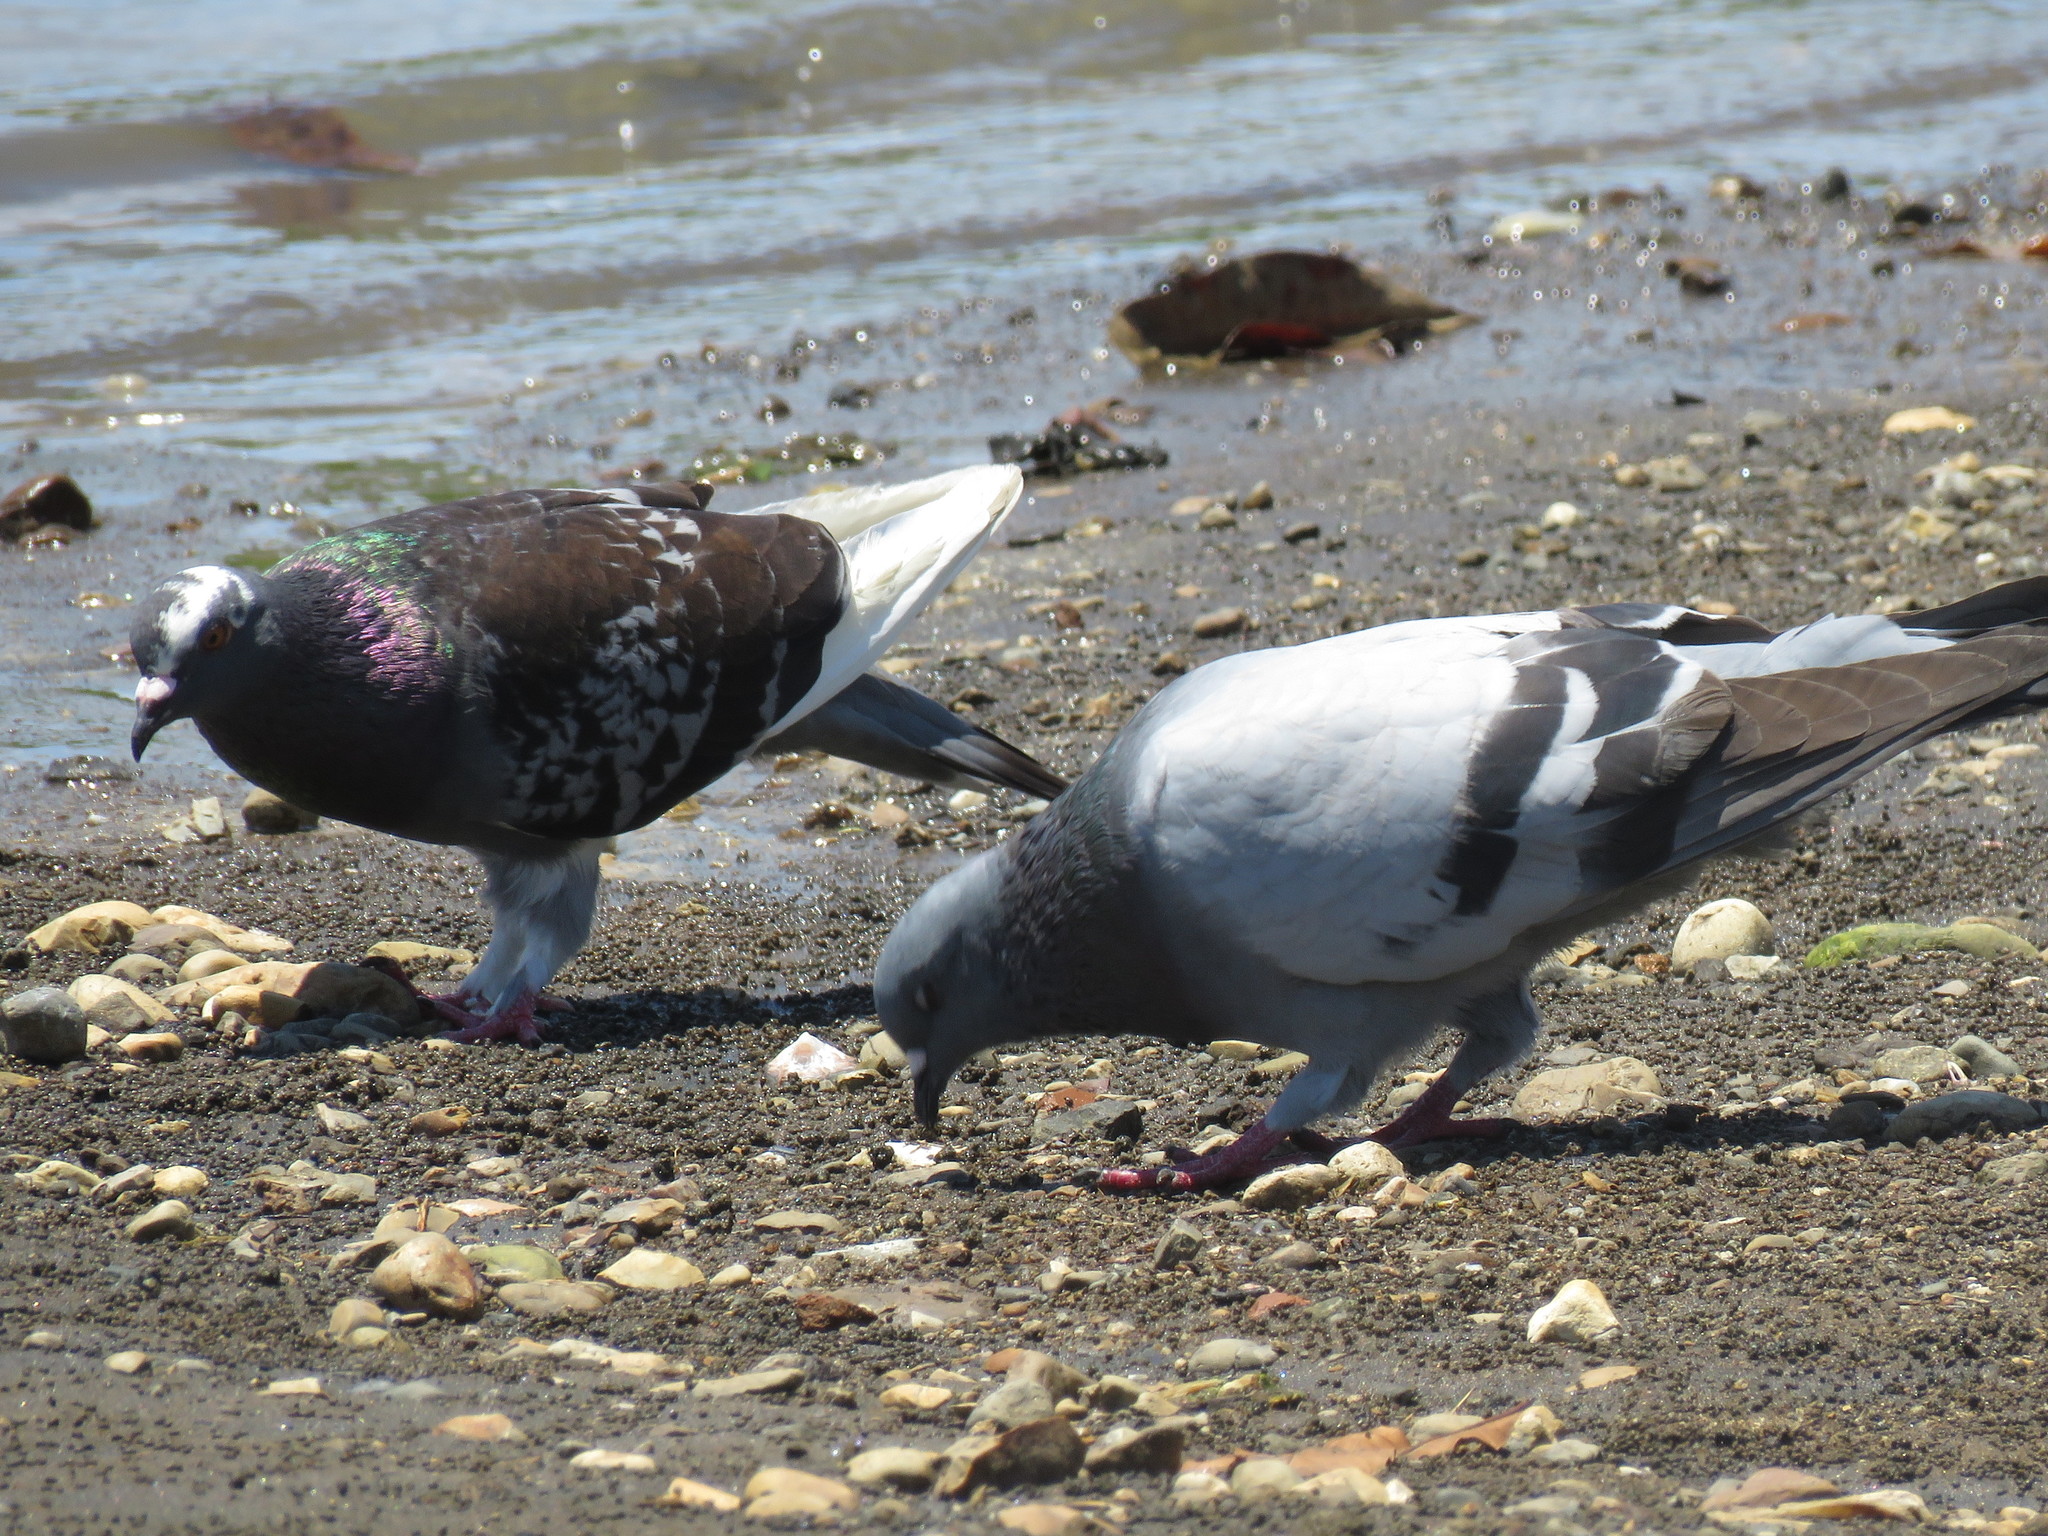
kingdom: Animalia
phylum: Chordata
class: Aves
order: Columbiformes
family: Columbidae
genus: Columba
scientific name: Columba livia
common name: Rock pigeon
